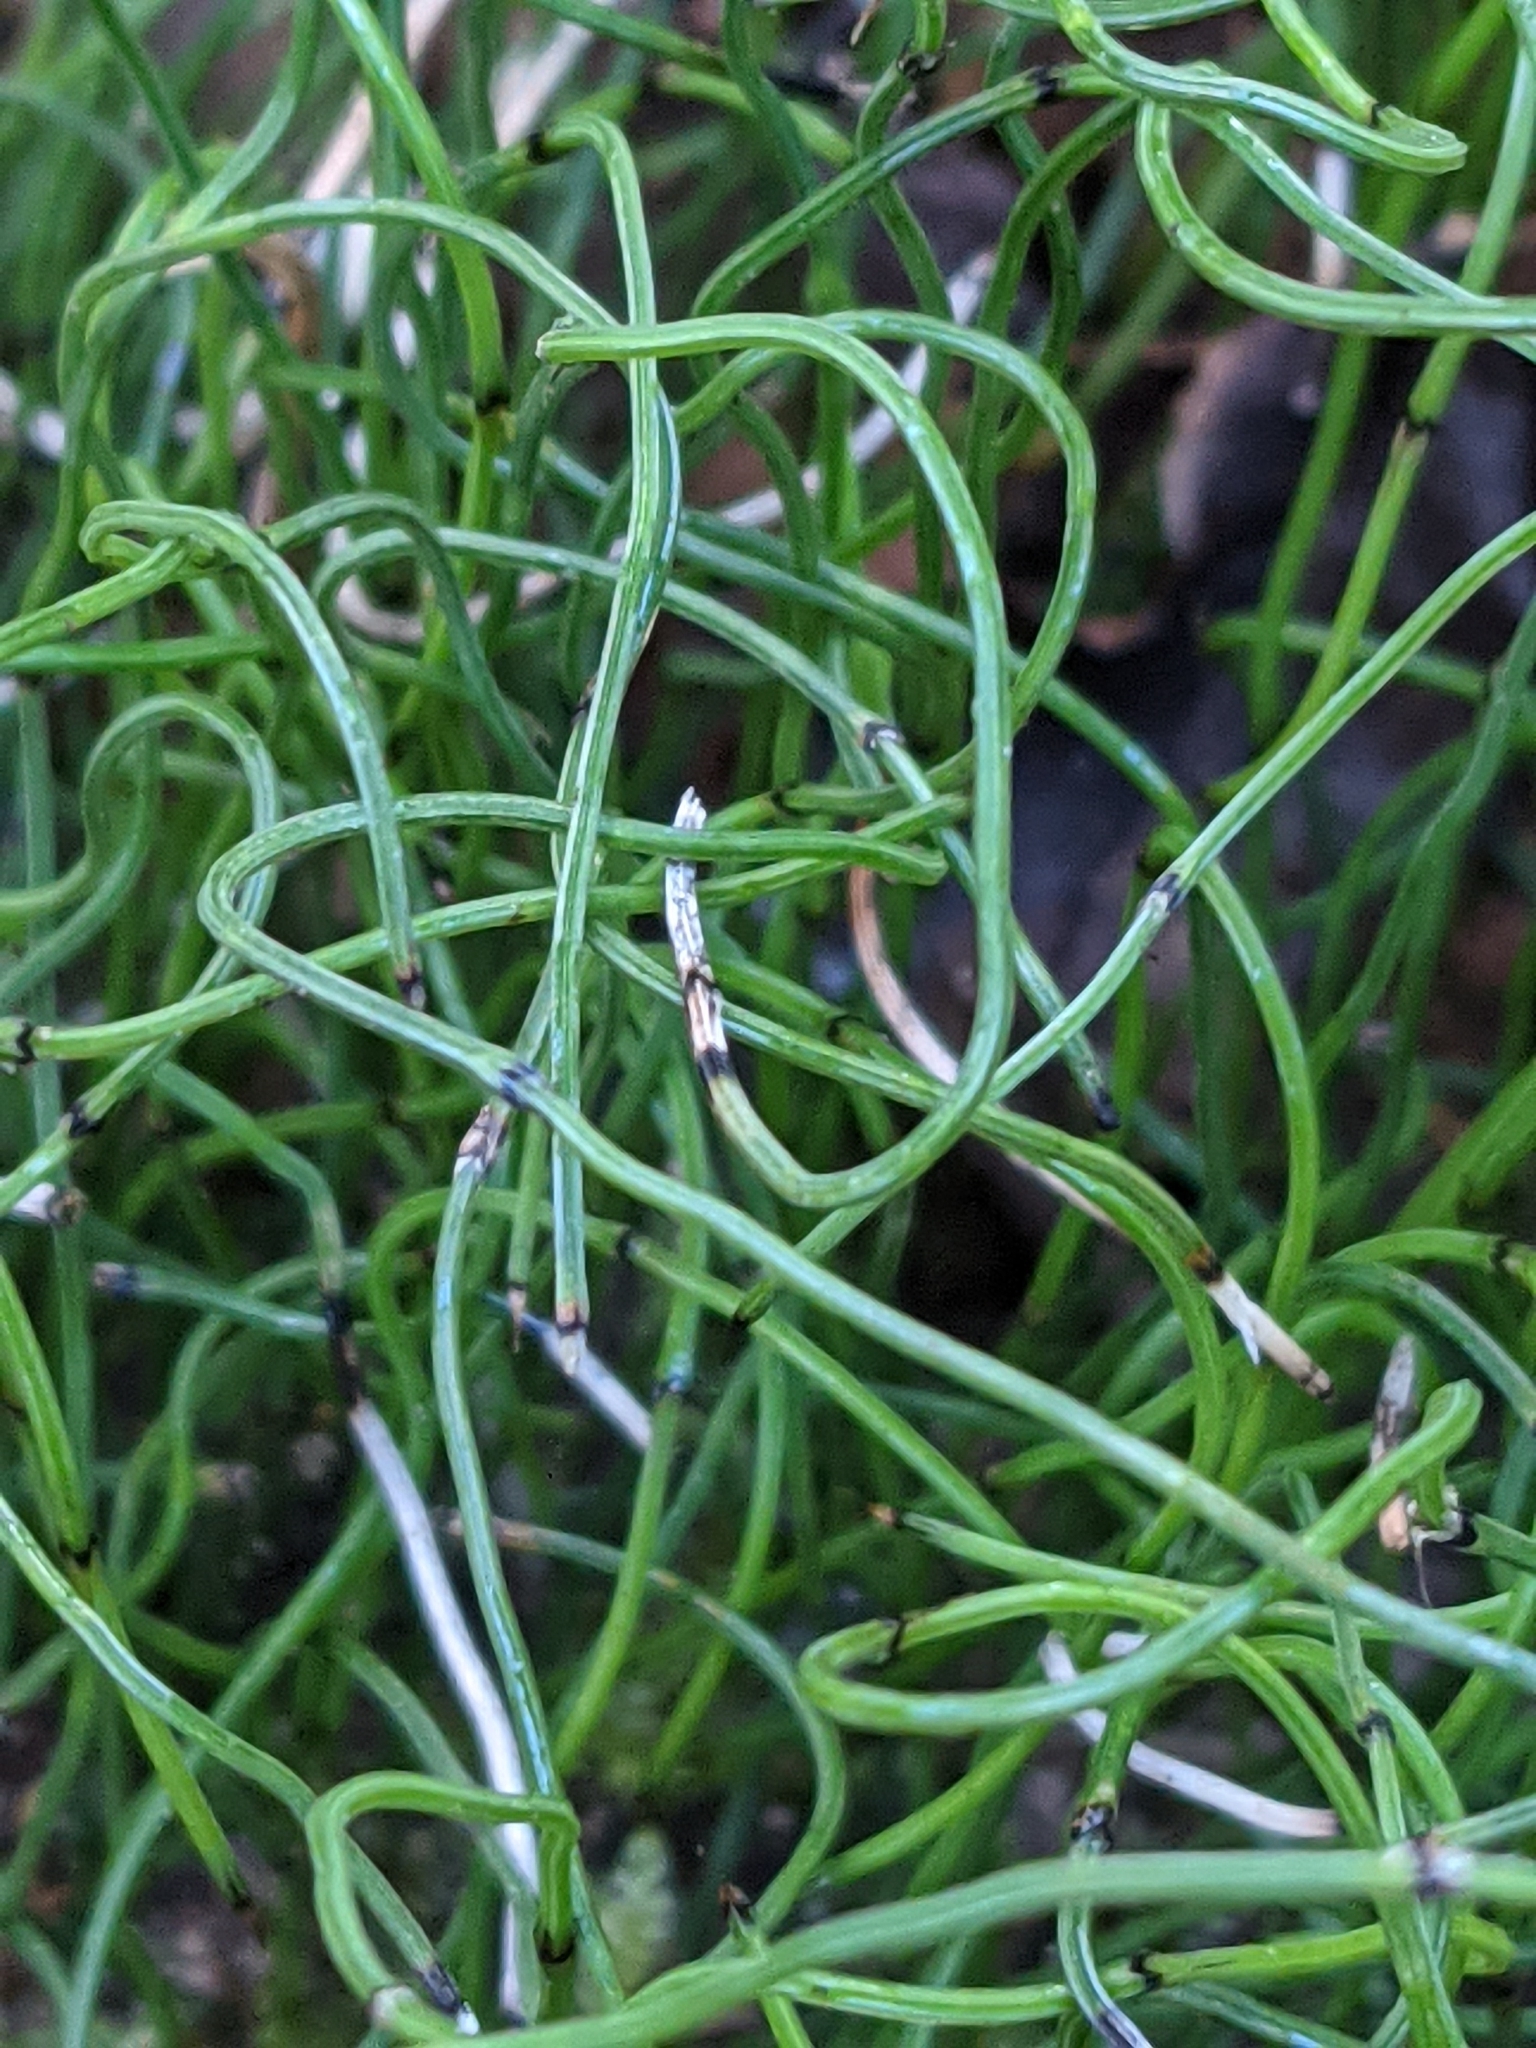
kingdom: Plantae
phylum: Tracheophyta
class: Polypodiopsida
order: Equisetales
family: Equisetaceae
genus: Equisetum
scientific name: Equisetum scirpoides
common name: Delicate horsetail
